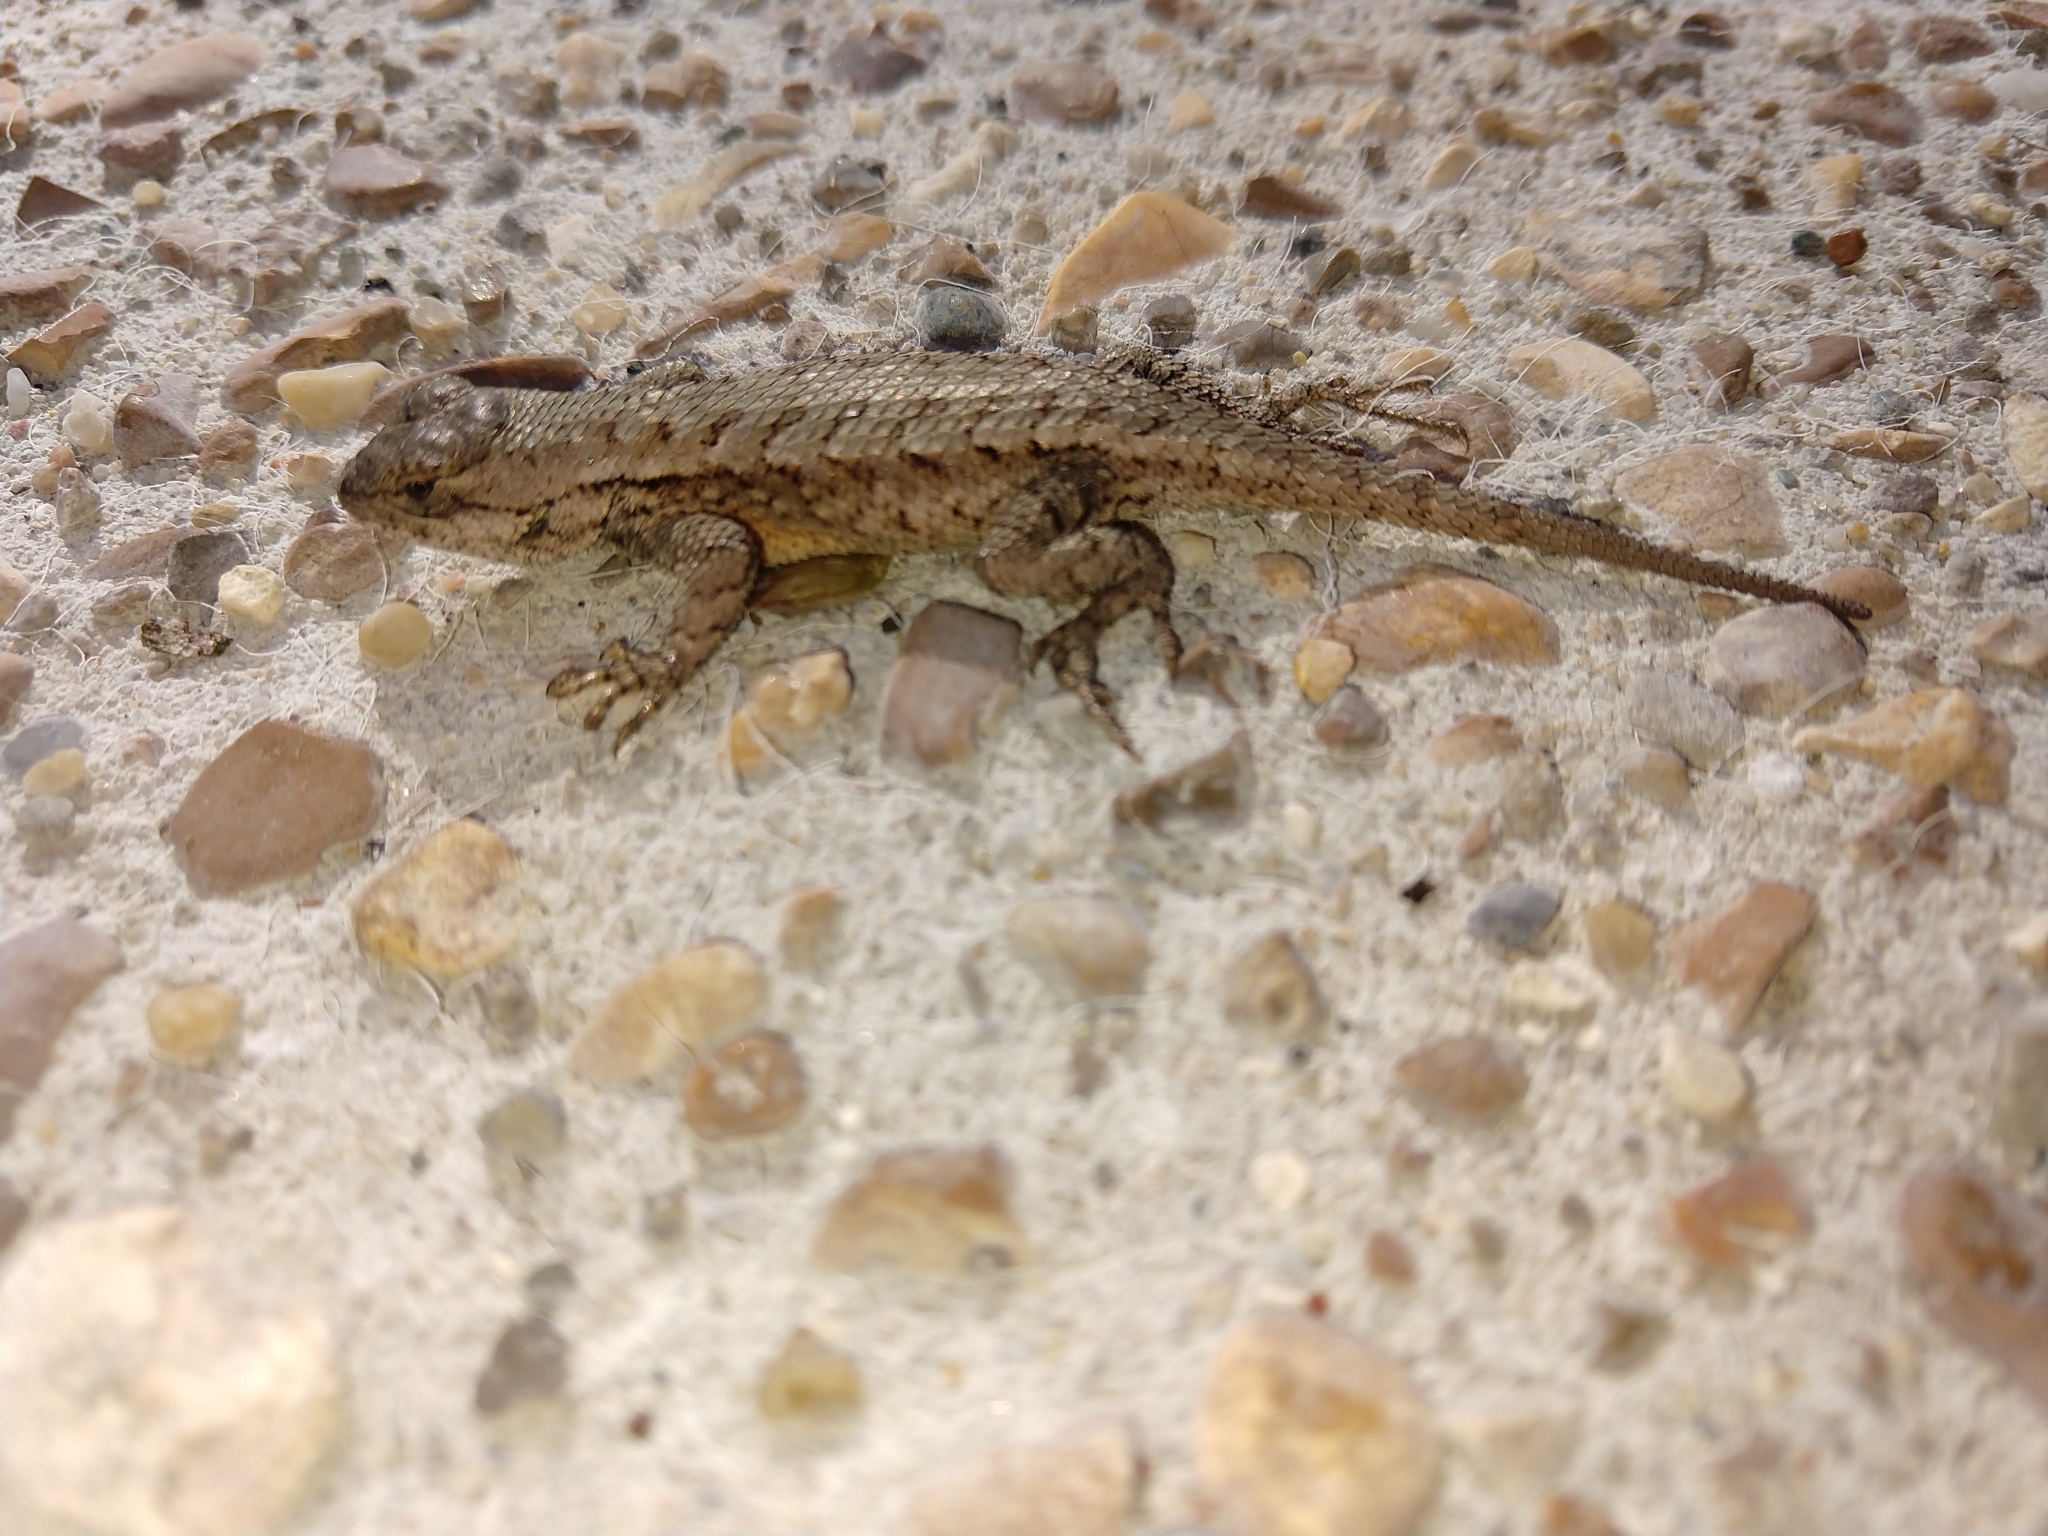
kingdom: Animalia
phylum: Chordata
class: Squamata
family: Phrynosomatidae
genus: Sceloporus
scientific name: Sceloporus undulatus
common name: Eastern fence lizard
